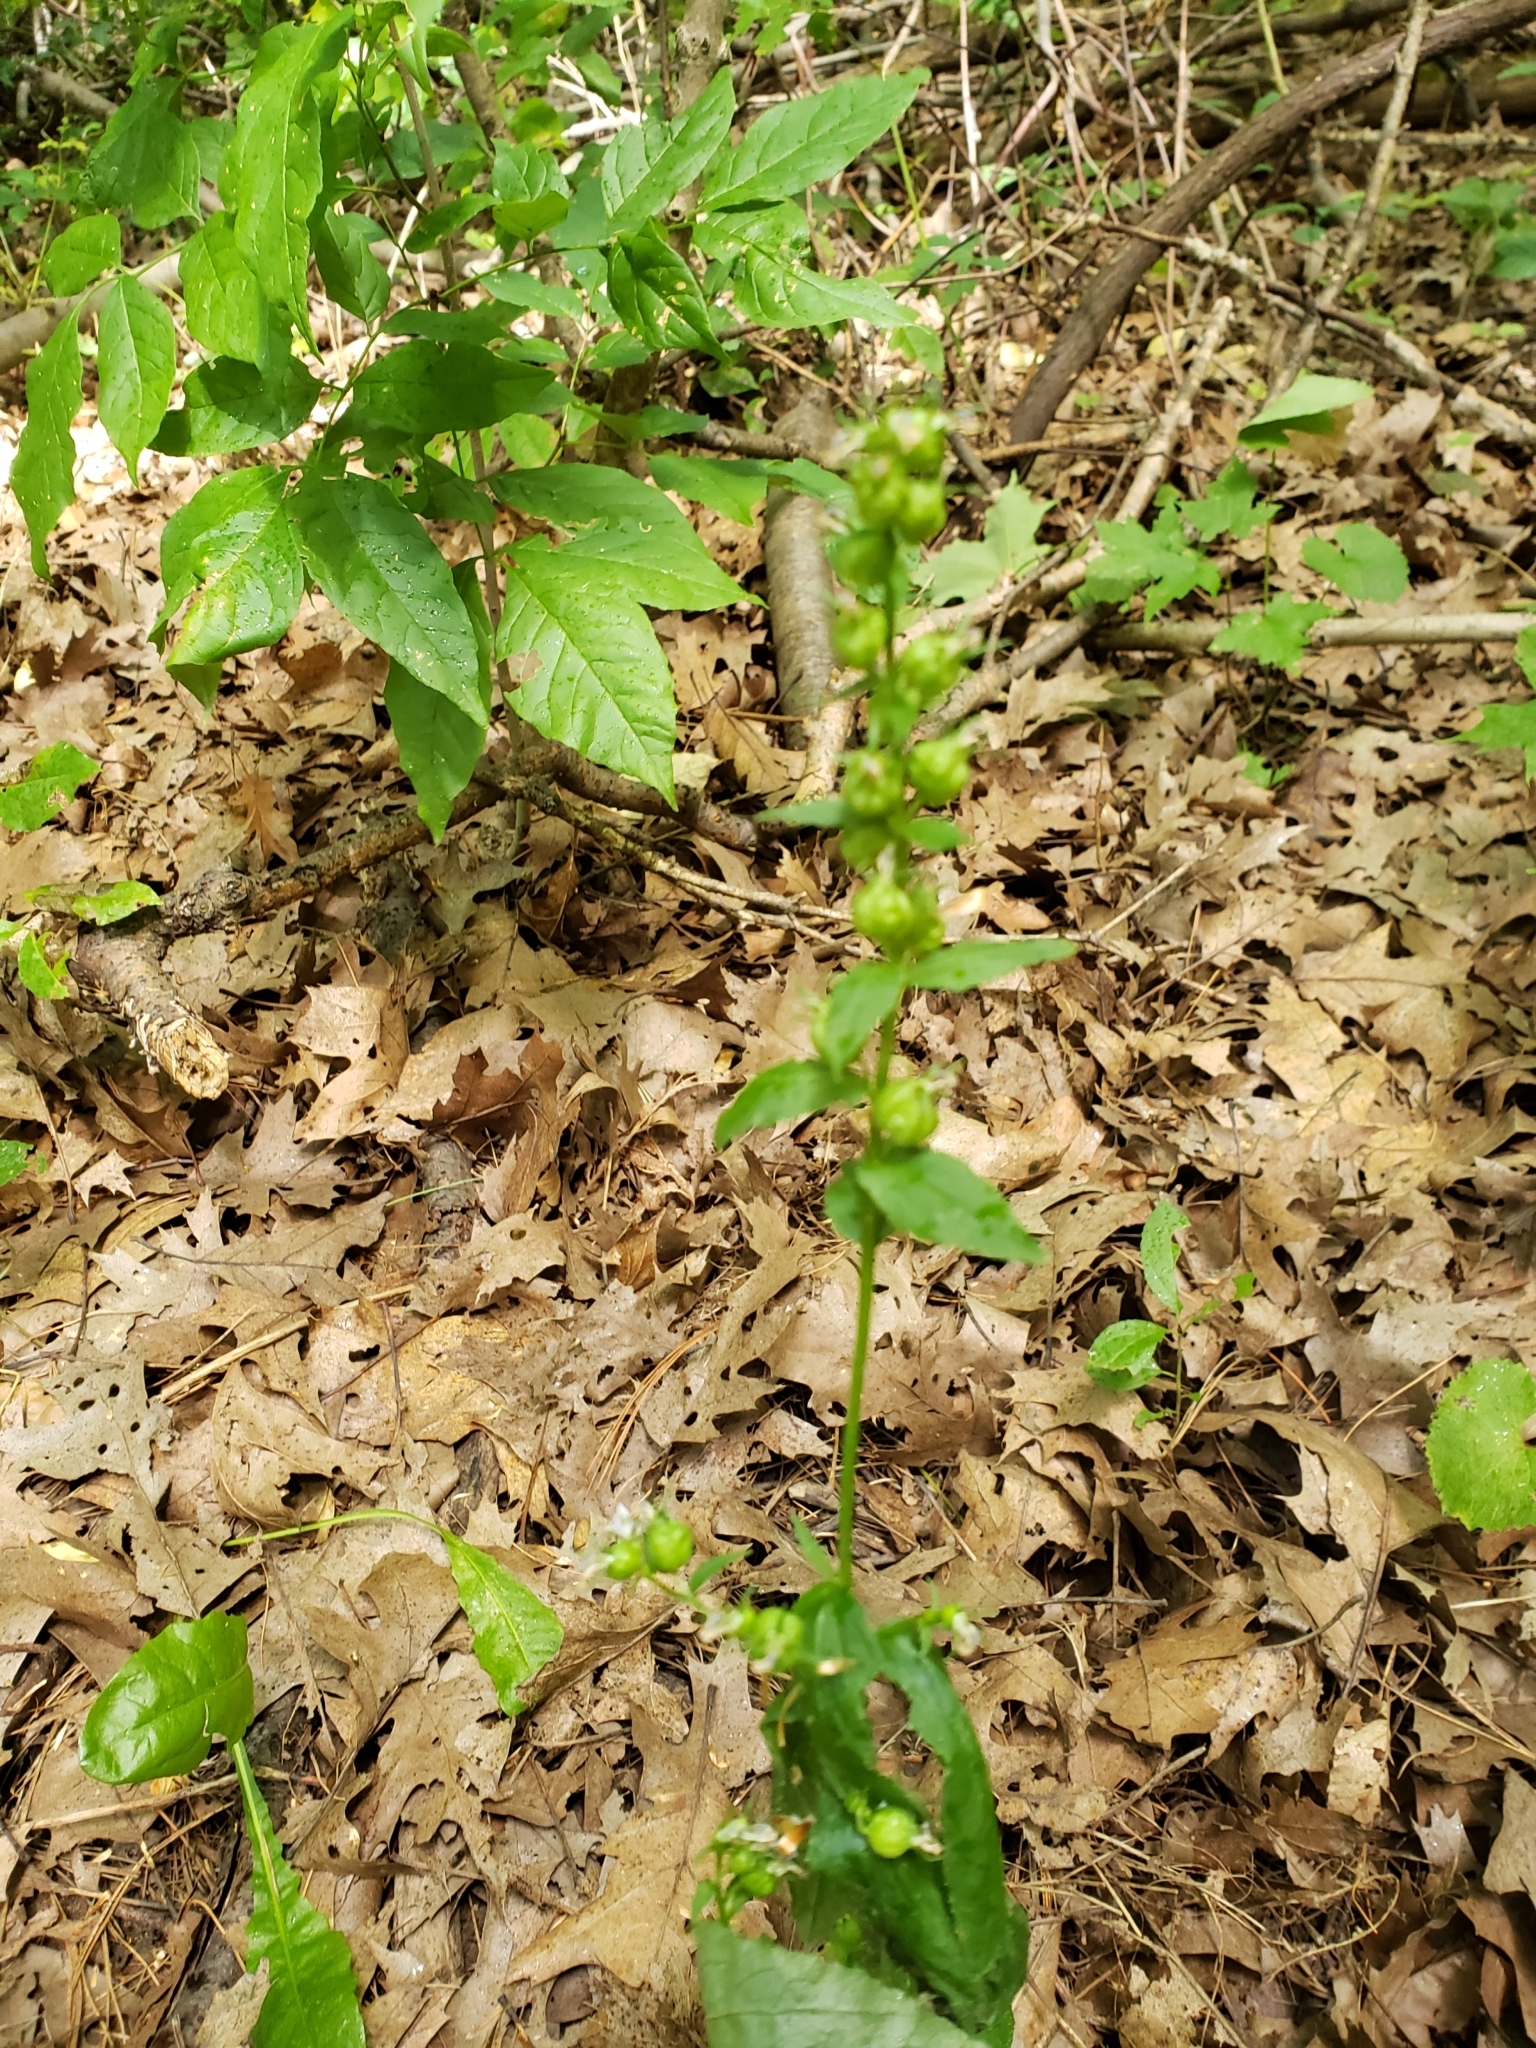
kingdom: Plantae
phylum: Tracheophyta
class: Magnoliopsida
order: Asterales
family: Campanulaceae
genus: Lobelia
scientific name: Lobelia inflata
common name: Indian tobacco
